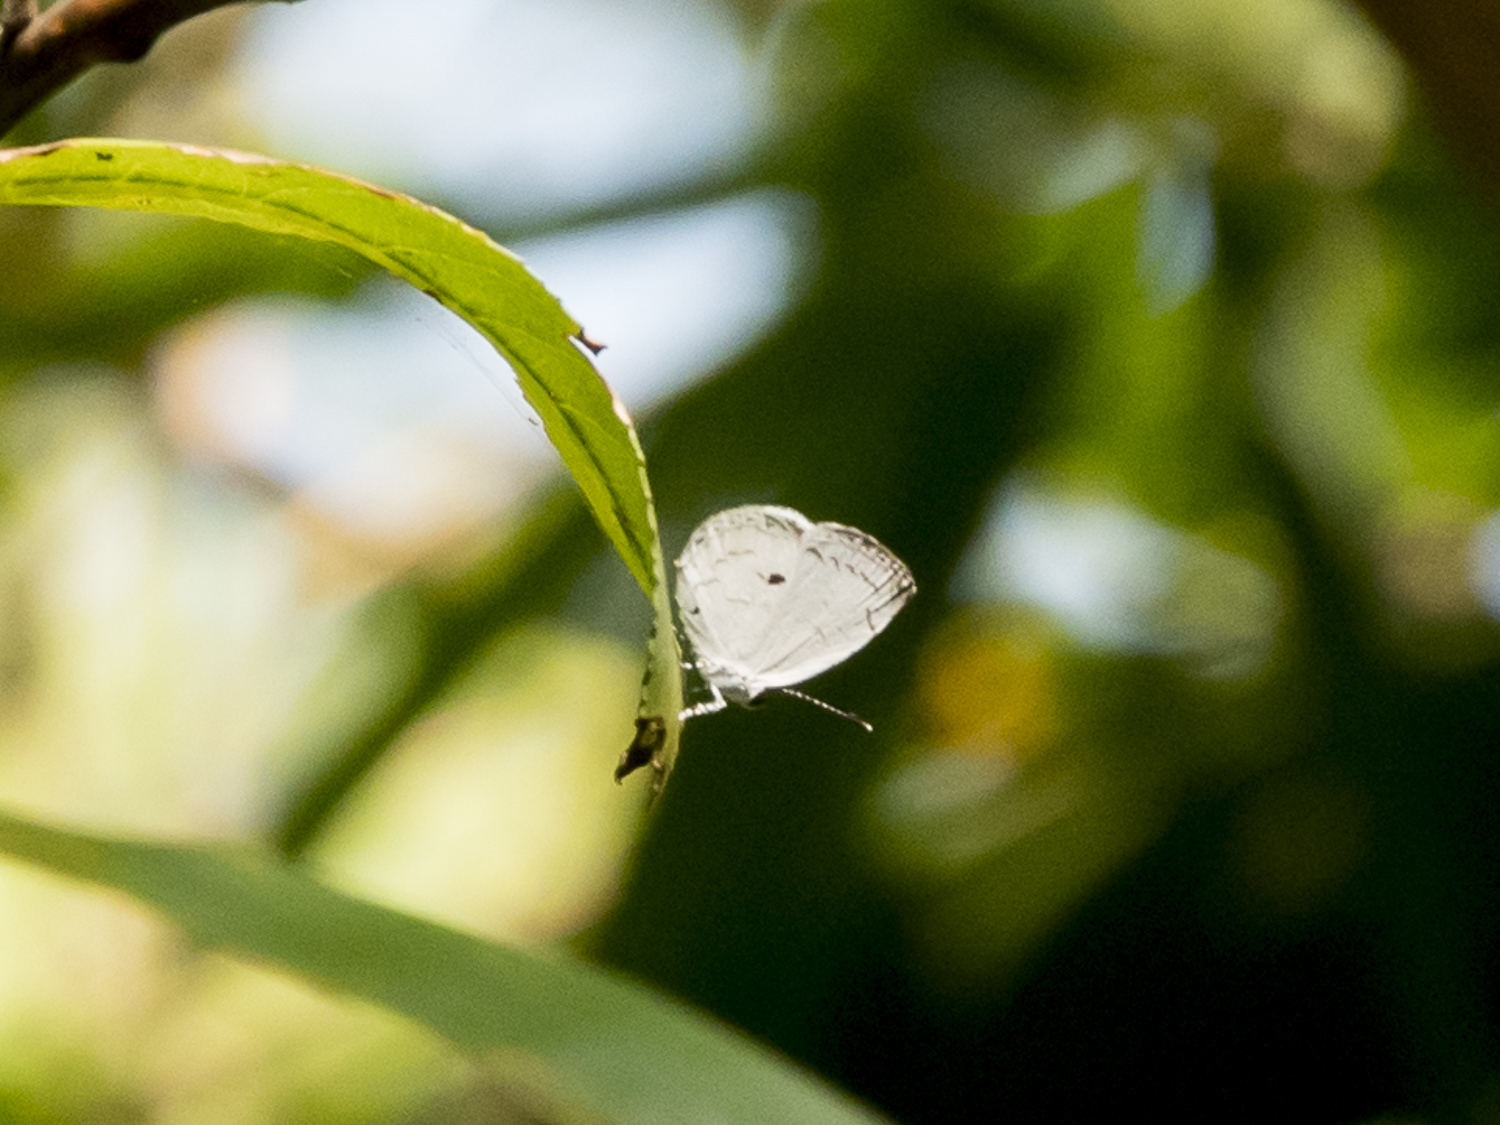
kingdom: Animalia
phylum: Arthropoda
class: Insecta
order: Lepidoptera
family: Lycaenidae
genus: Neopithecops
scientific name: Neopithecops zalmora
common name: Quaker
